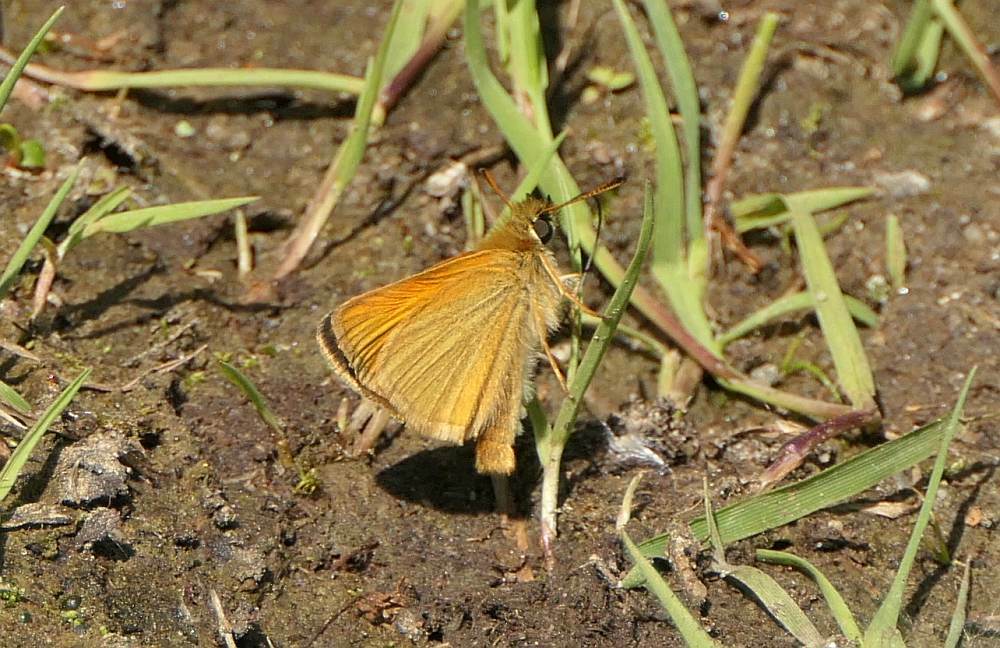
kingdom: Animalia
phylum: Arthropoda
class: Insecta
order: Lepidoptera
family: Hesperiidae
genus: Thymelicus
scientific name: Thymelicus lineola
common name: Essex skipper
